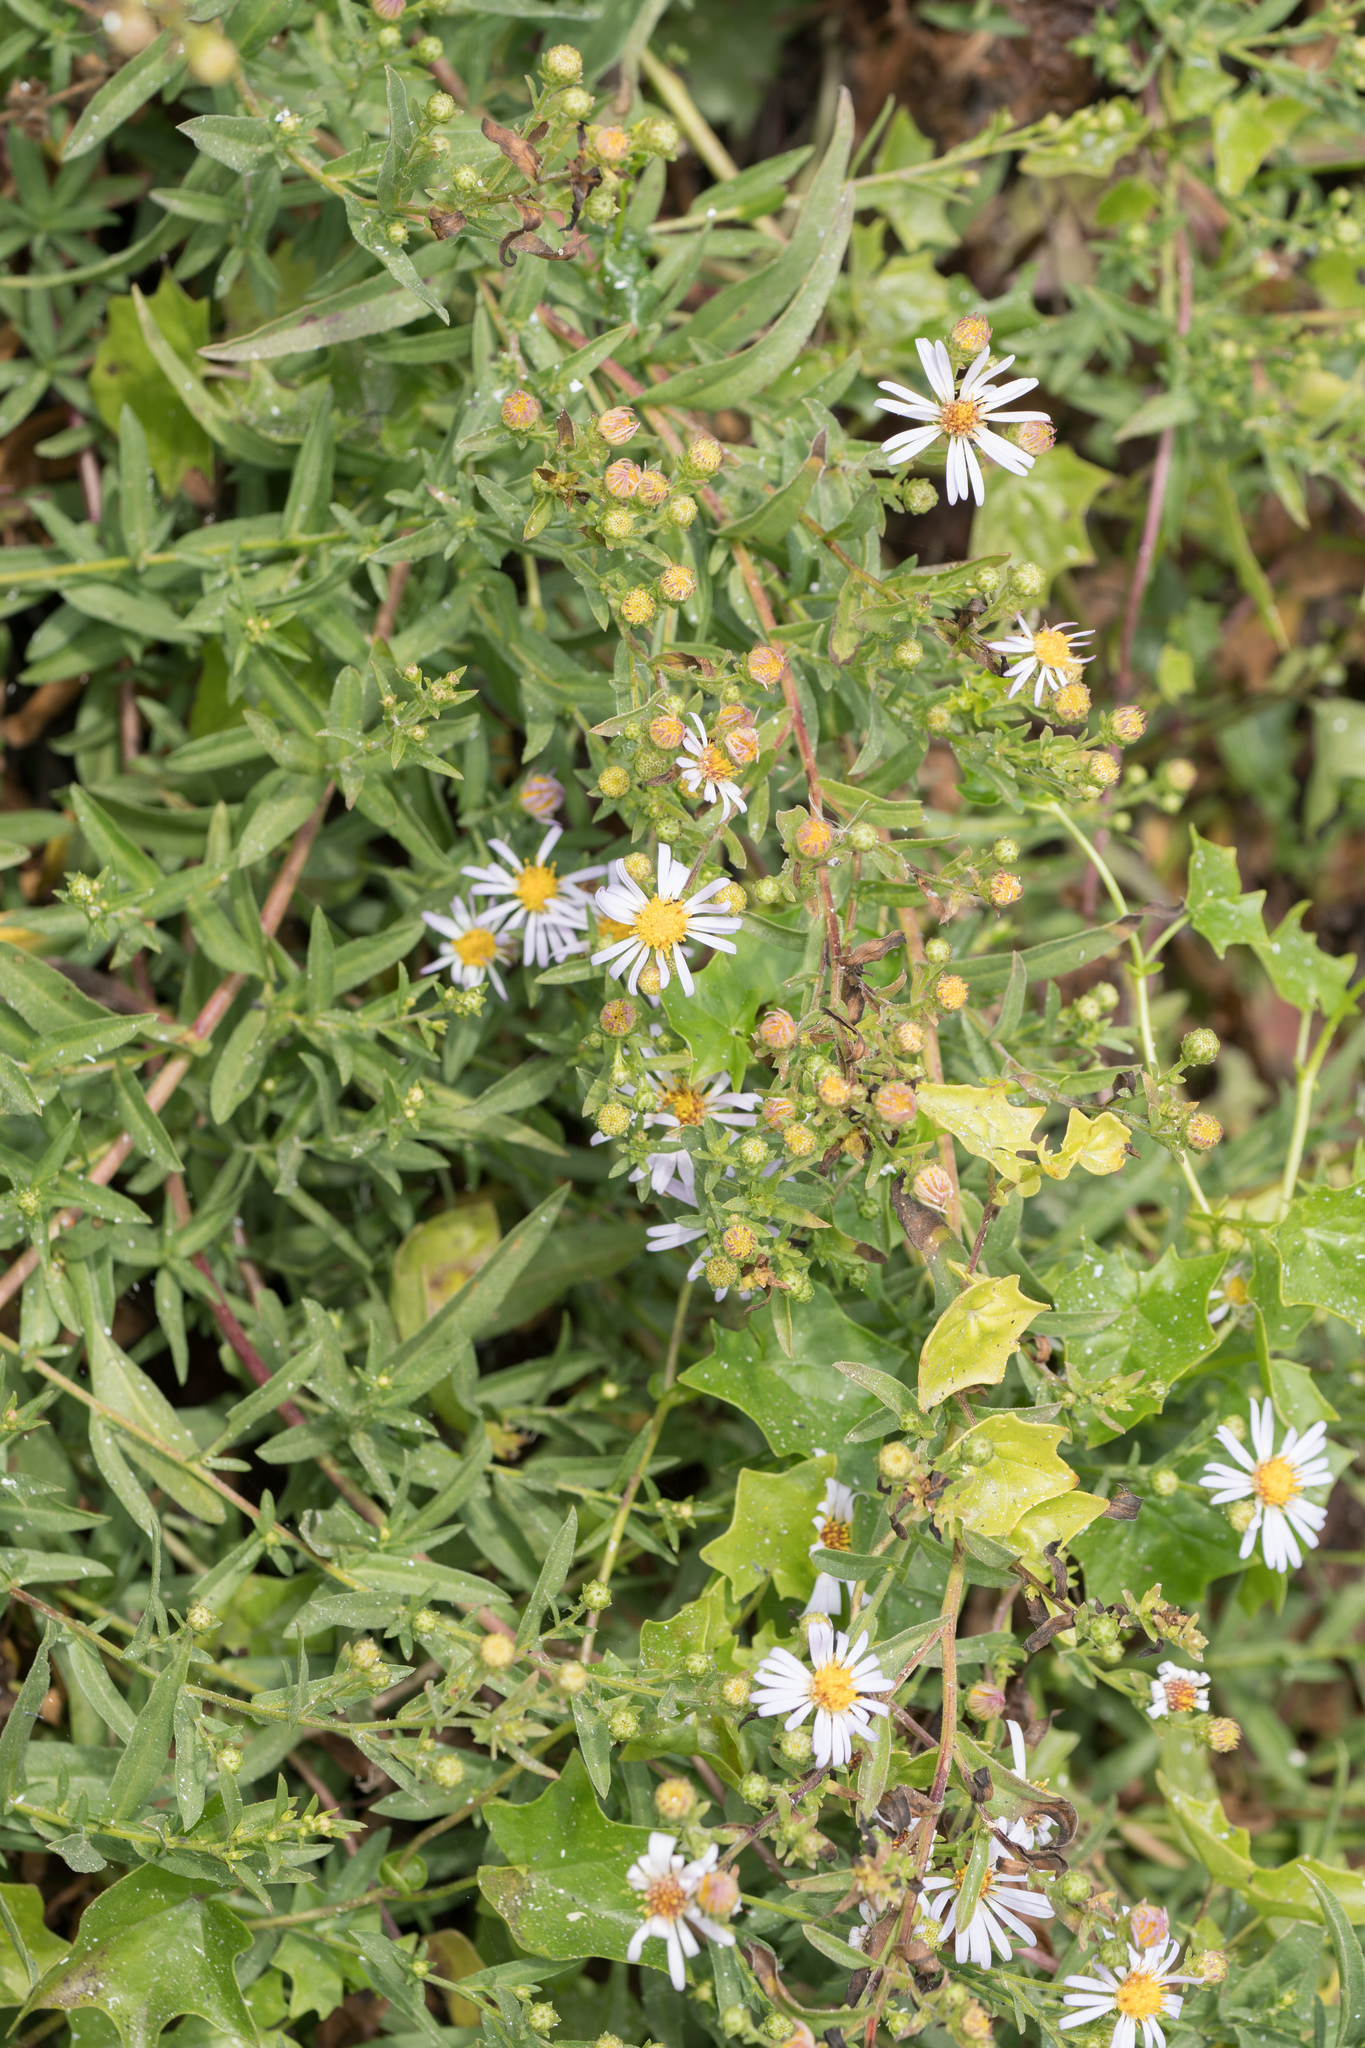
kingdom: Plantae
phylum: Tracheophyta
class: Magnoliopsida
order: Asterales
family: Asteraceae
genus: Symphyotrichum
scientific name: Symphyotrichum chilense
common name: Pacific aster
